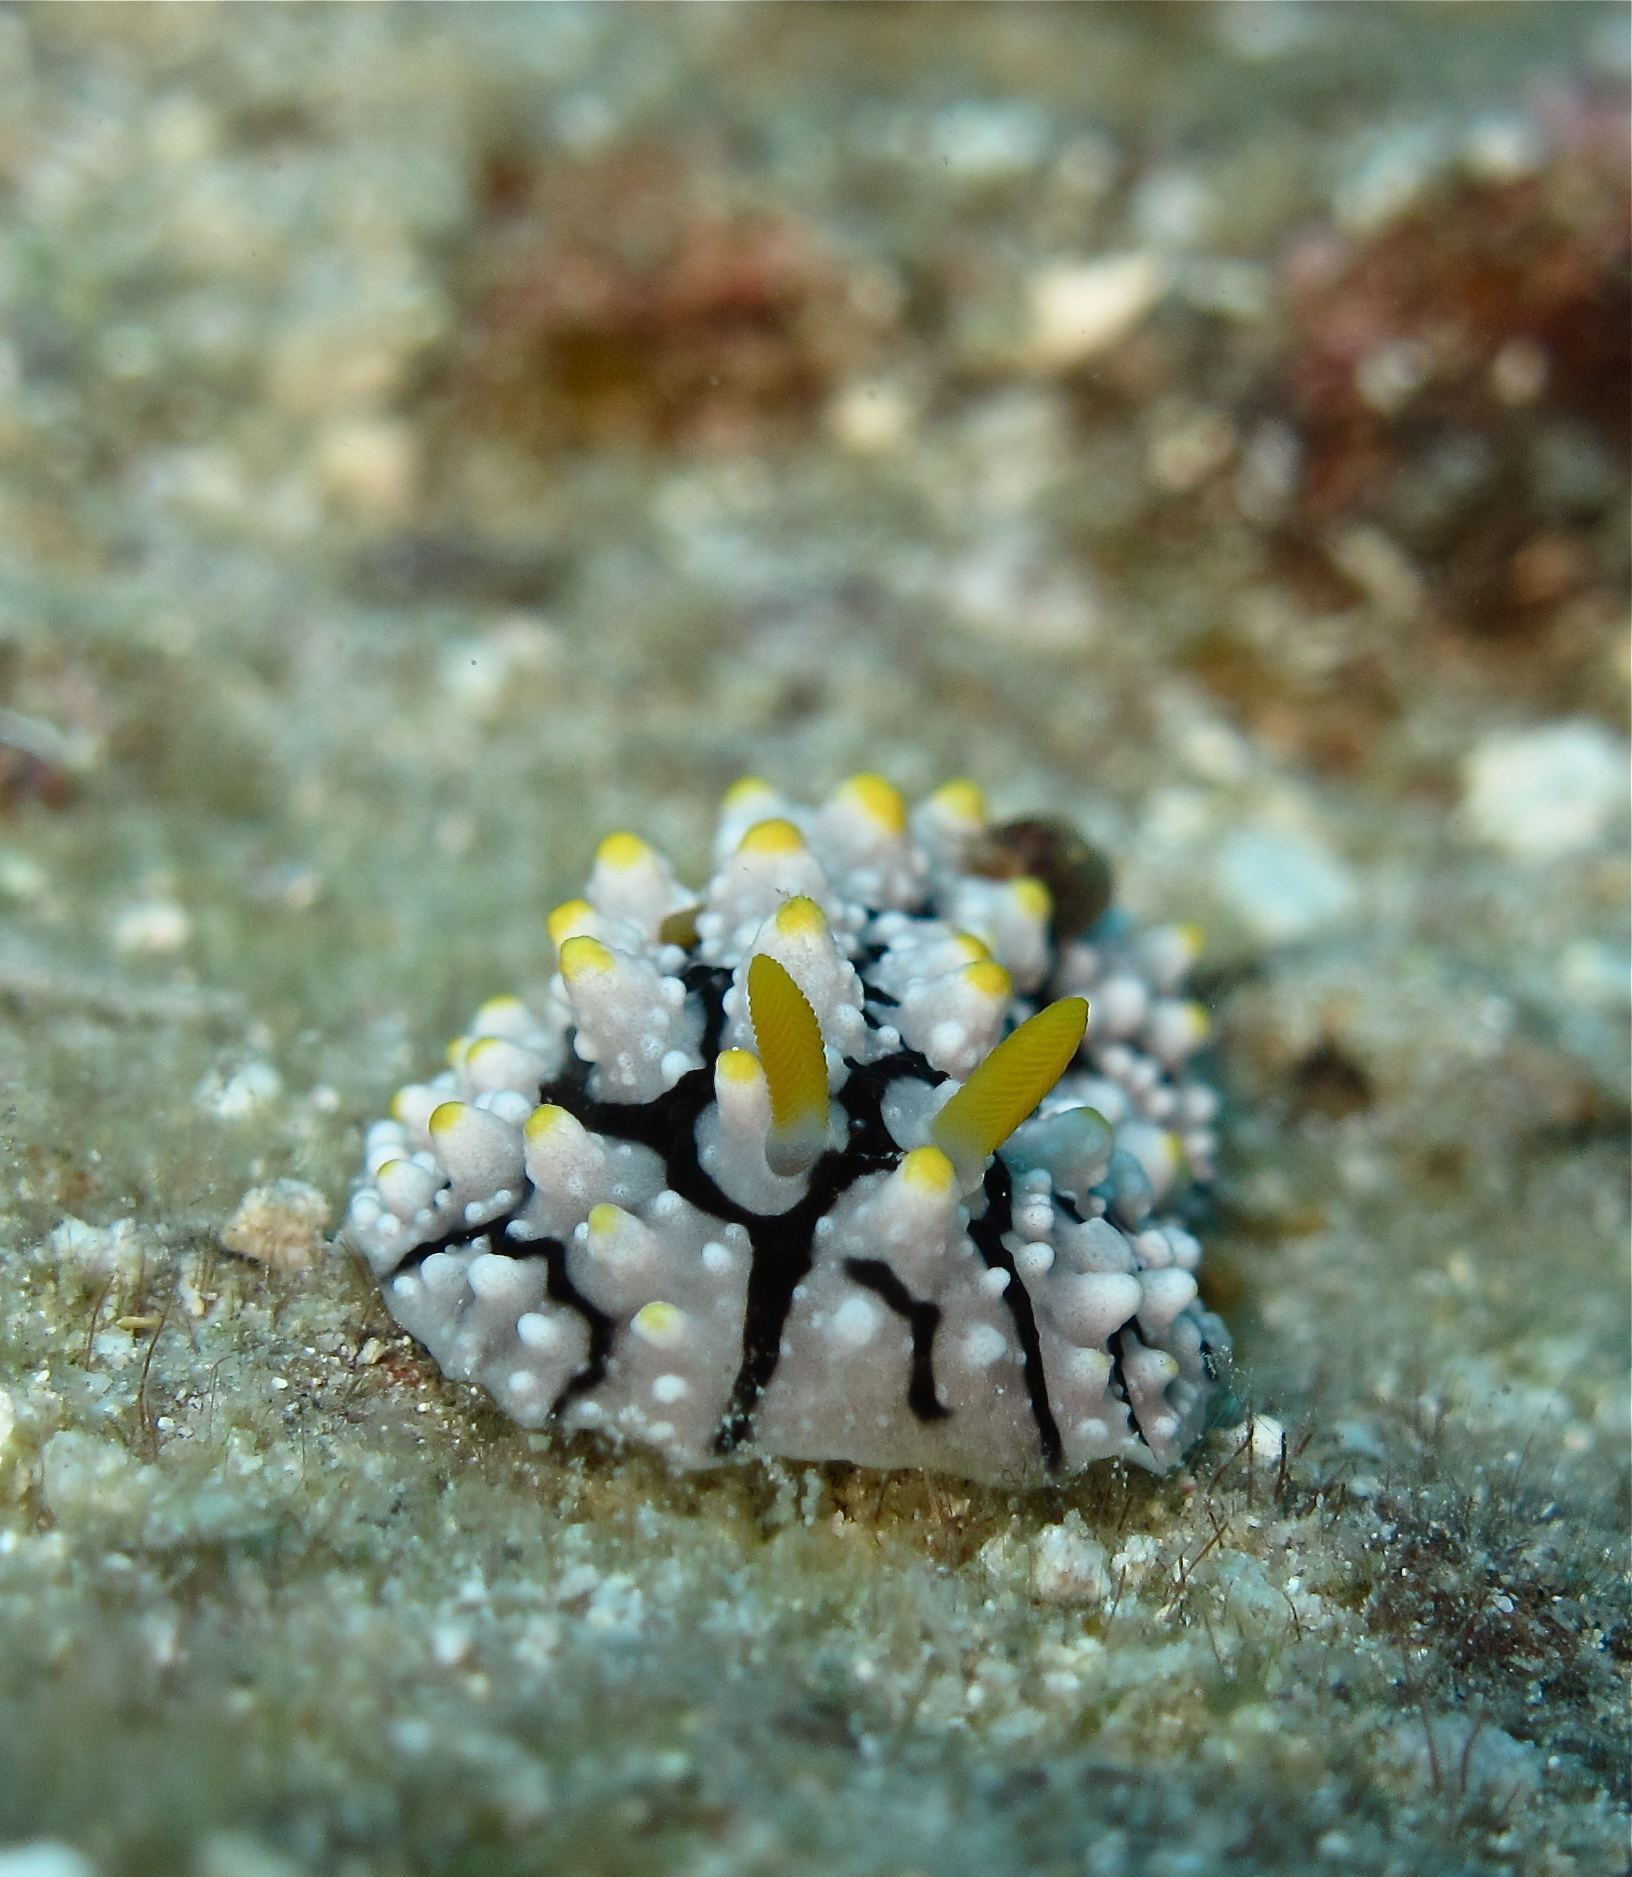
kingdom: Animalia
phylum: Mollusca
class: Gastropoda
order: Nudibranchia
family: Phyllidiidae
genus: Phyllidia
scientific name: Phyllidia elegans
